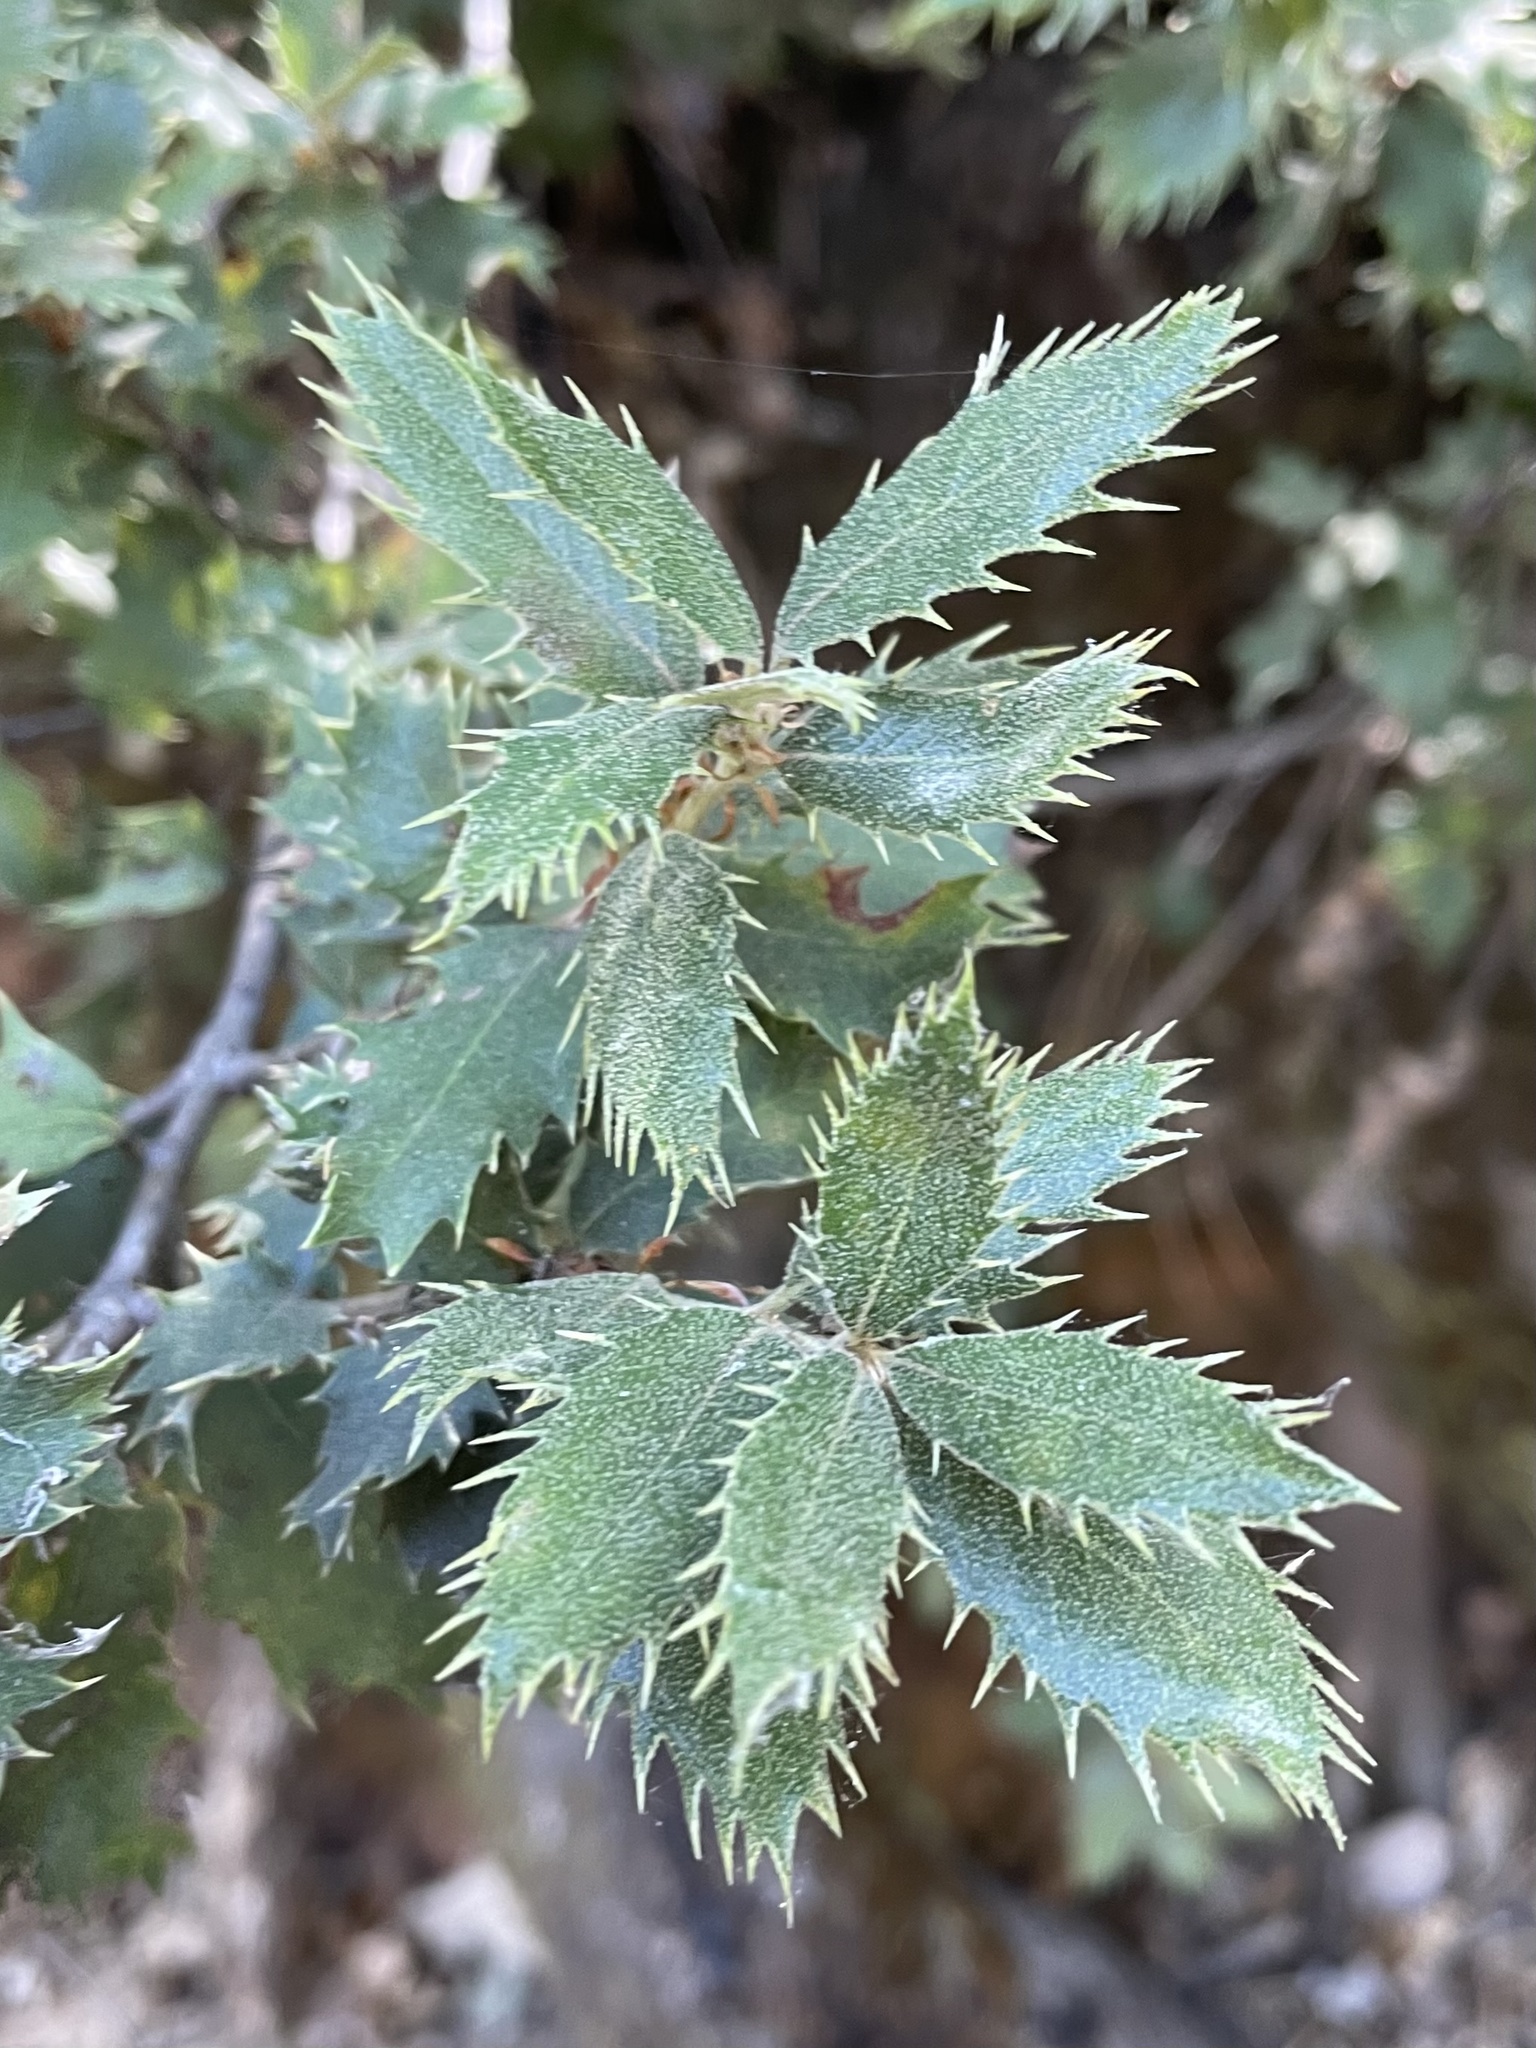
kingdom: Plantae
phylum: Tracheophyta
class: Magnoliopsida
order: Fagales
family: Fagaceae
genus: Quercus
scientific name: Quercus chrysolepis
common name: Canyon live oak
